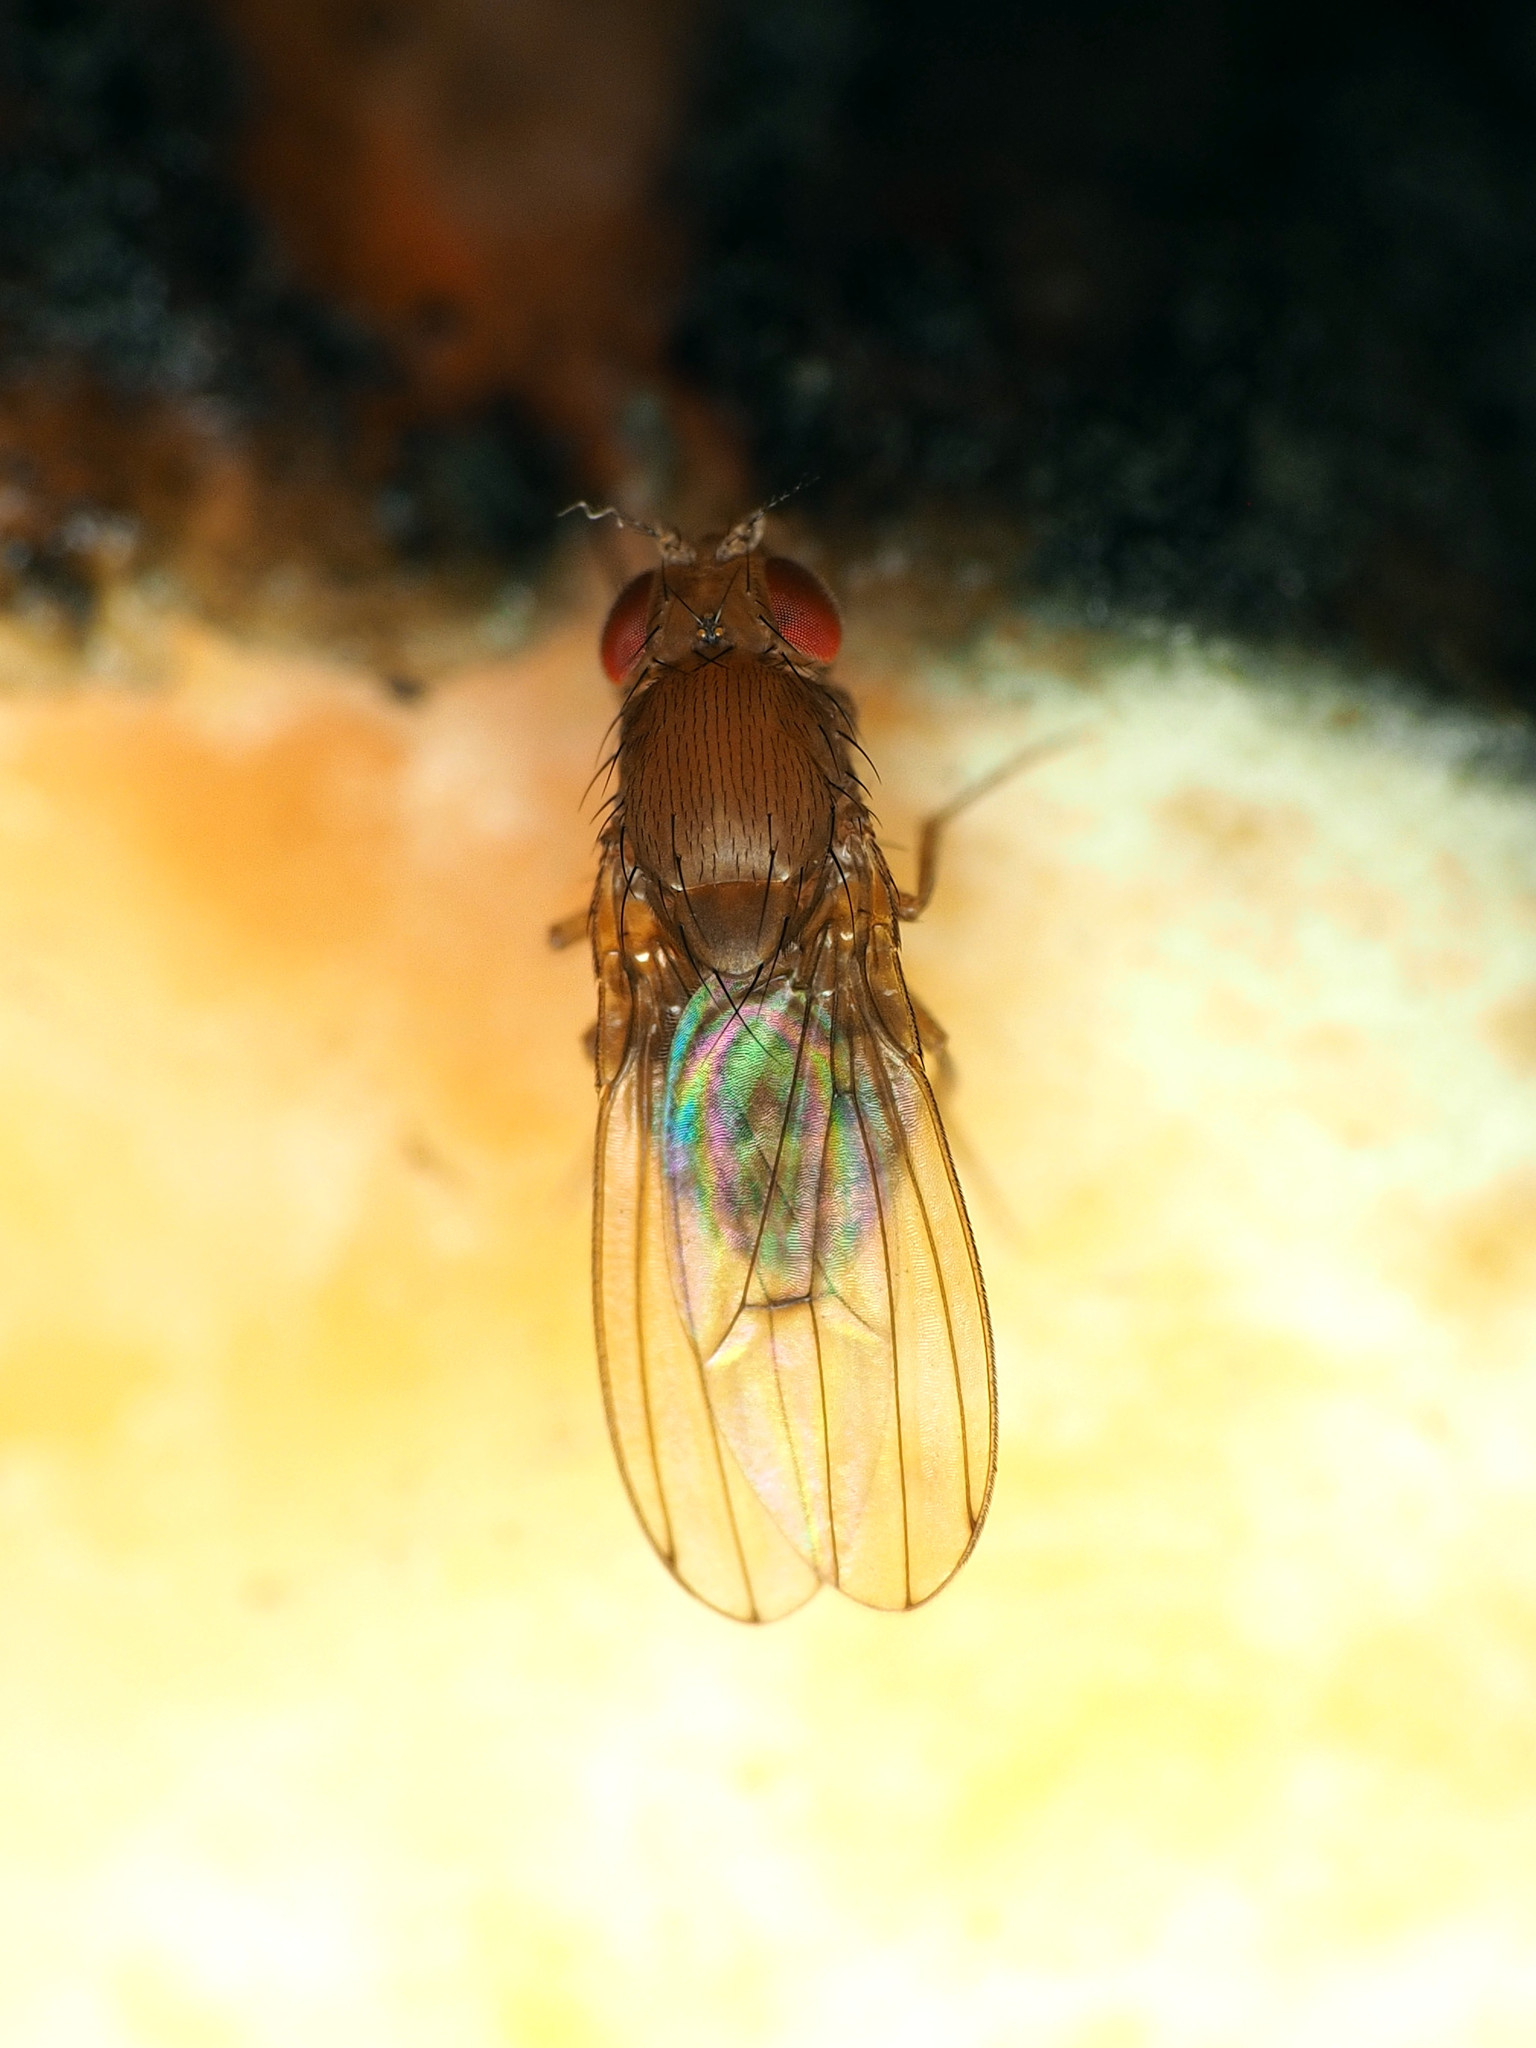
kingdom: Animalia
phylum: Arthropoda
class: Insecta
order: Diptera
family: Drosophilidae
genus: Drosophila
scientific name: Drosophila immigrans
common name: Pomace fly
